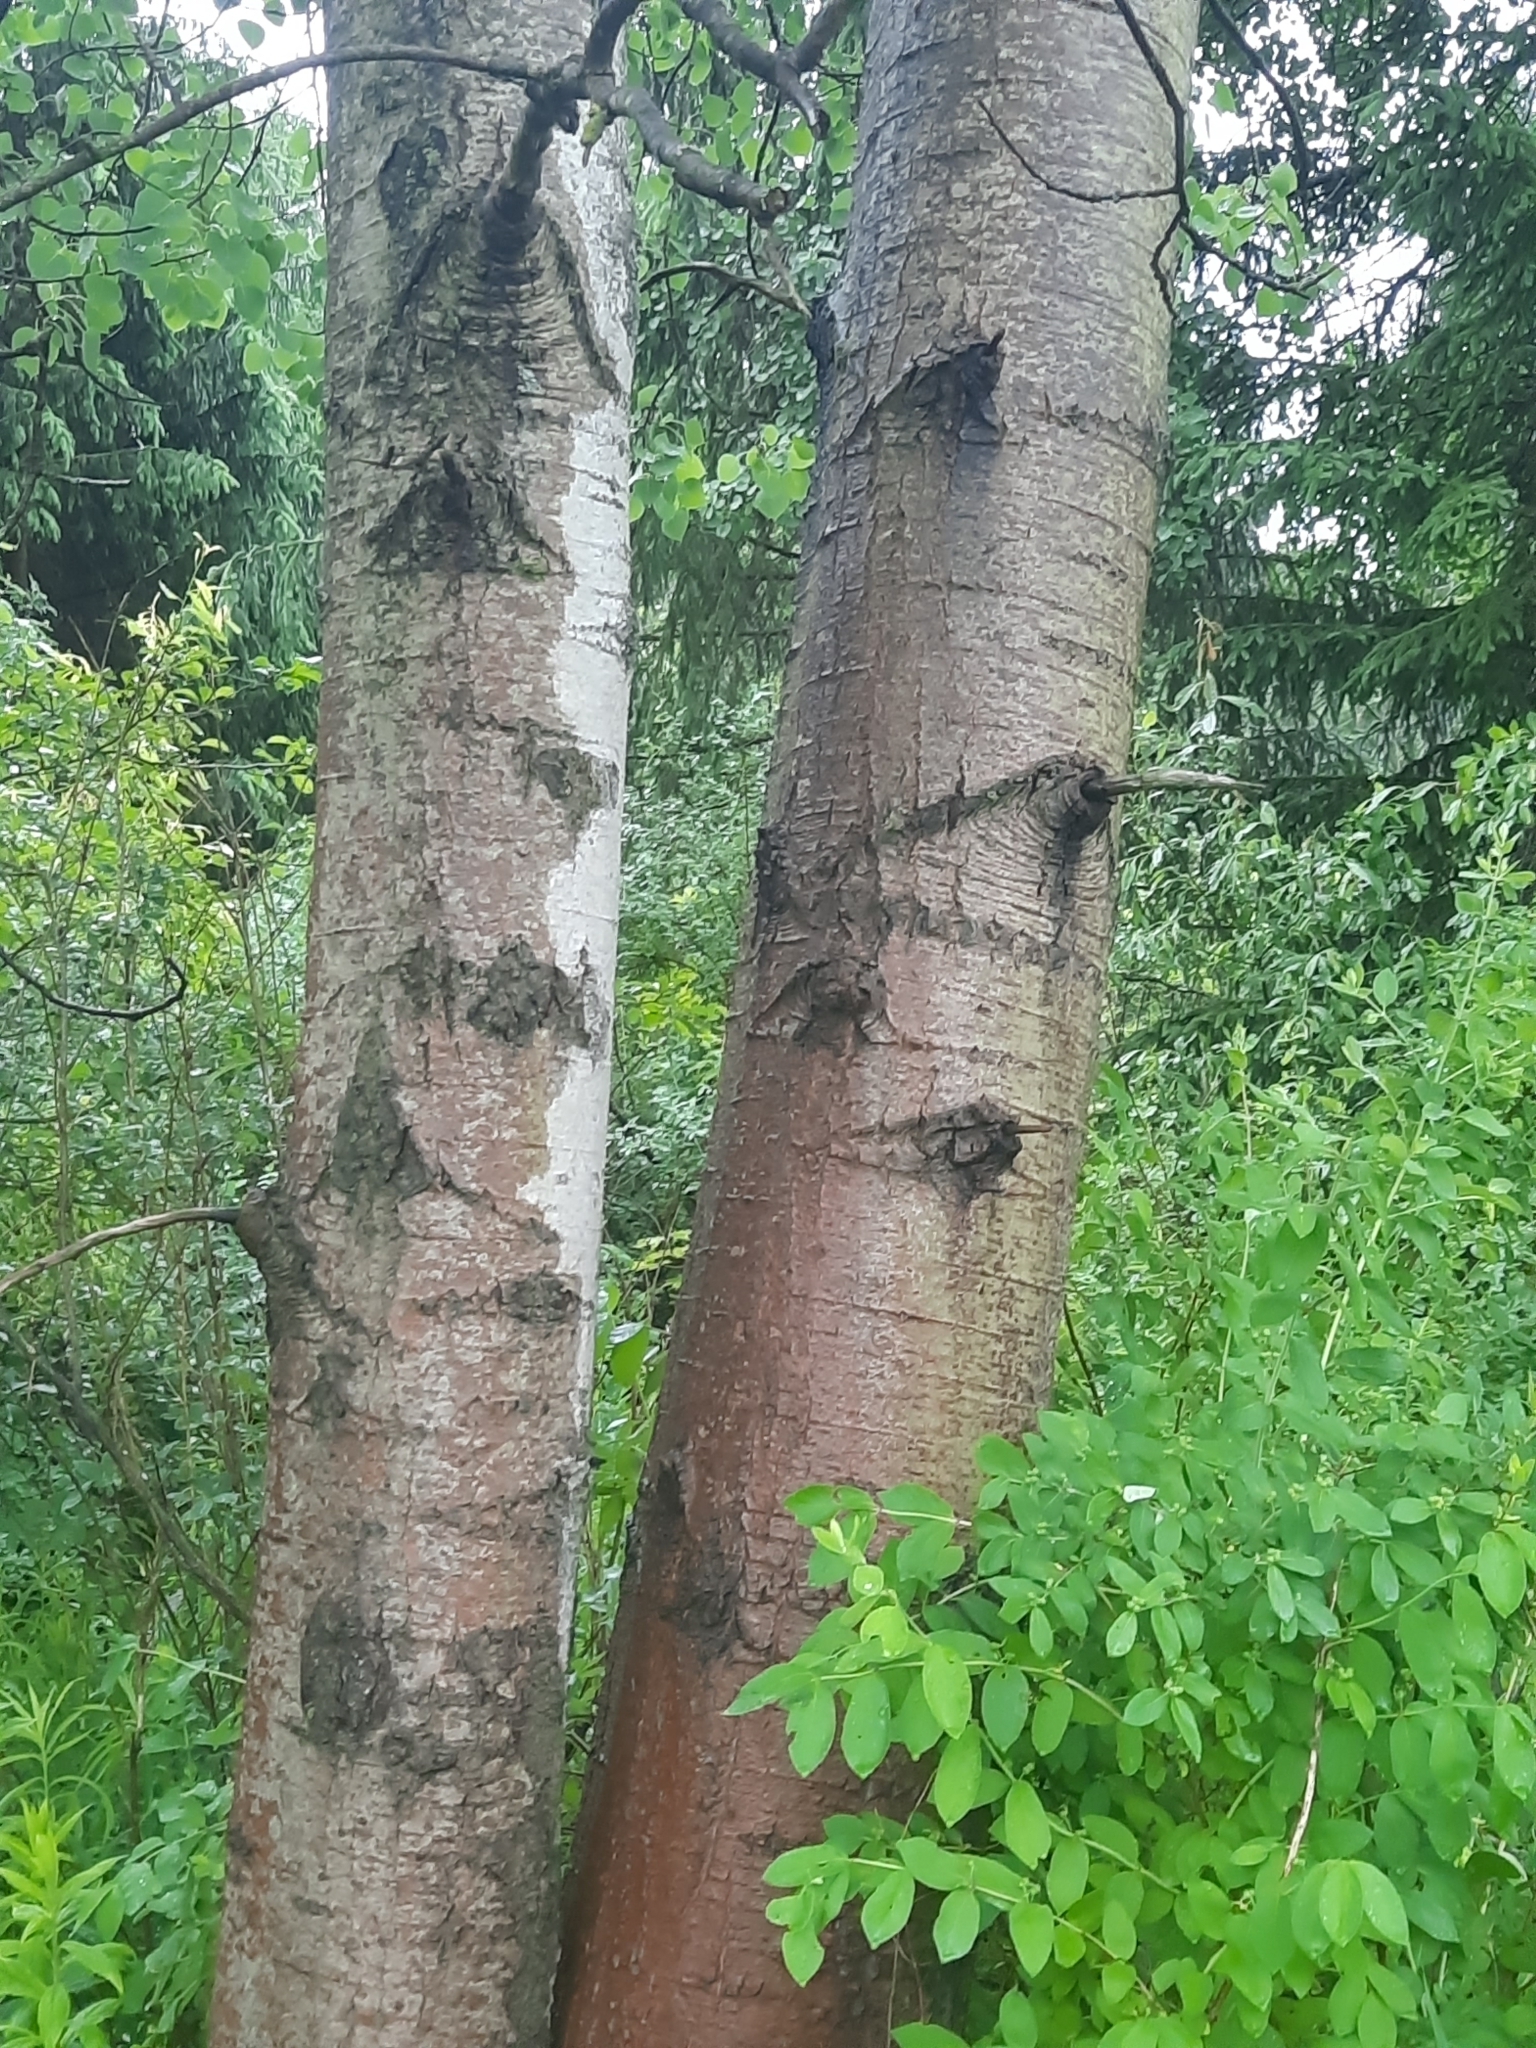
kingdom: Plantae
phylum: Tracheophyta
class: Magnoliopsida
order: Malpighiales
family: Salicaceae
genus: Populus
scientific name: Populus tremuloides
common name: Quaking aspen
